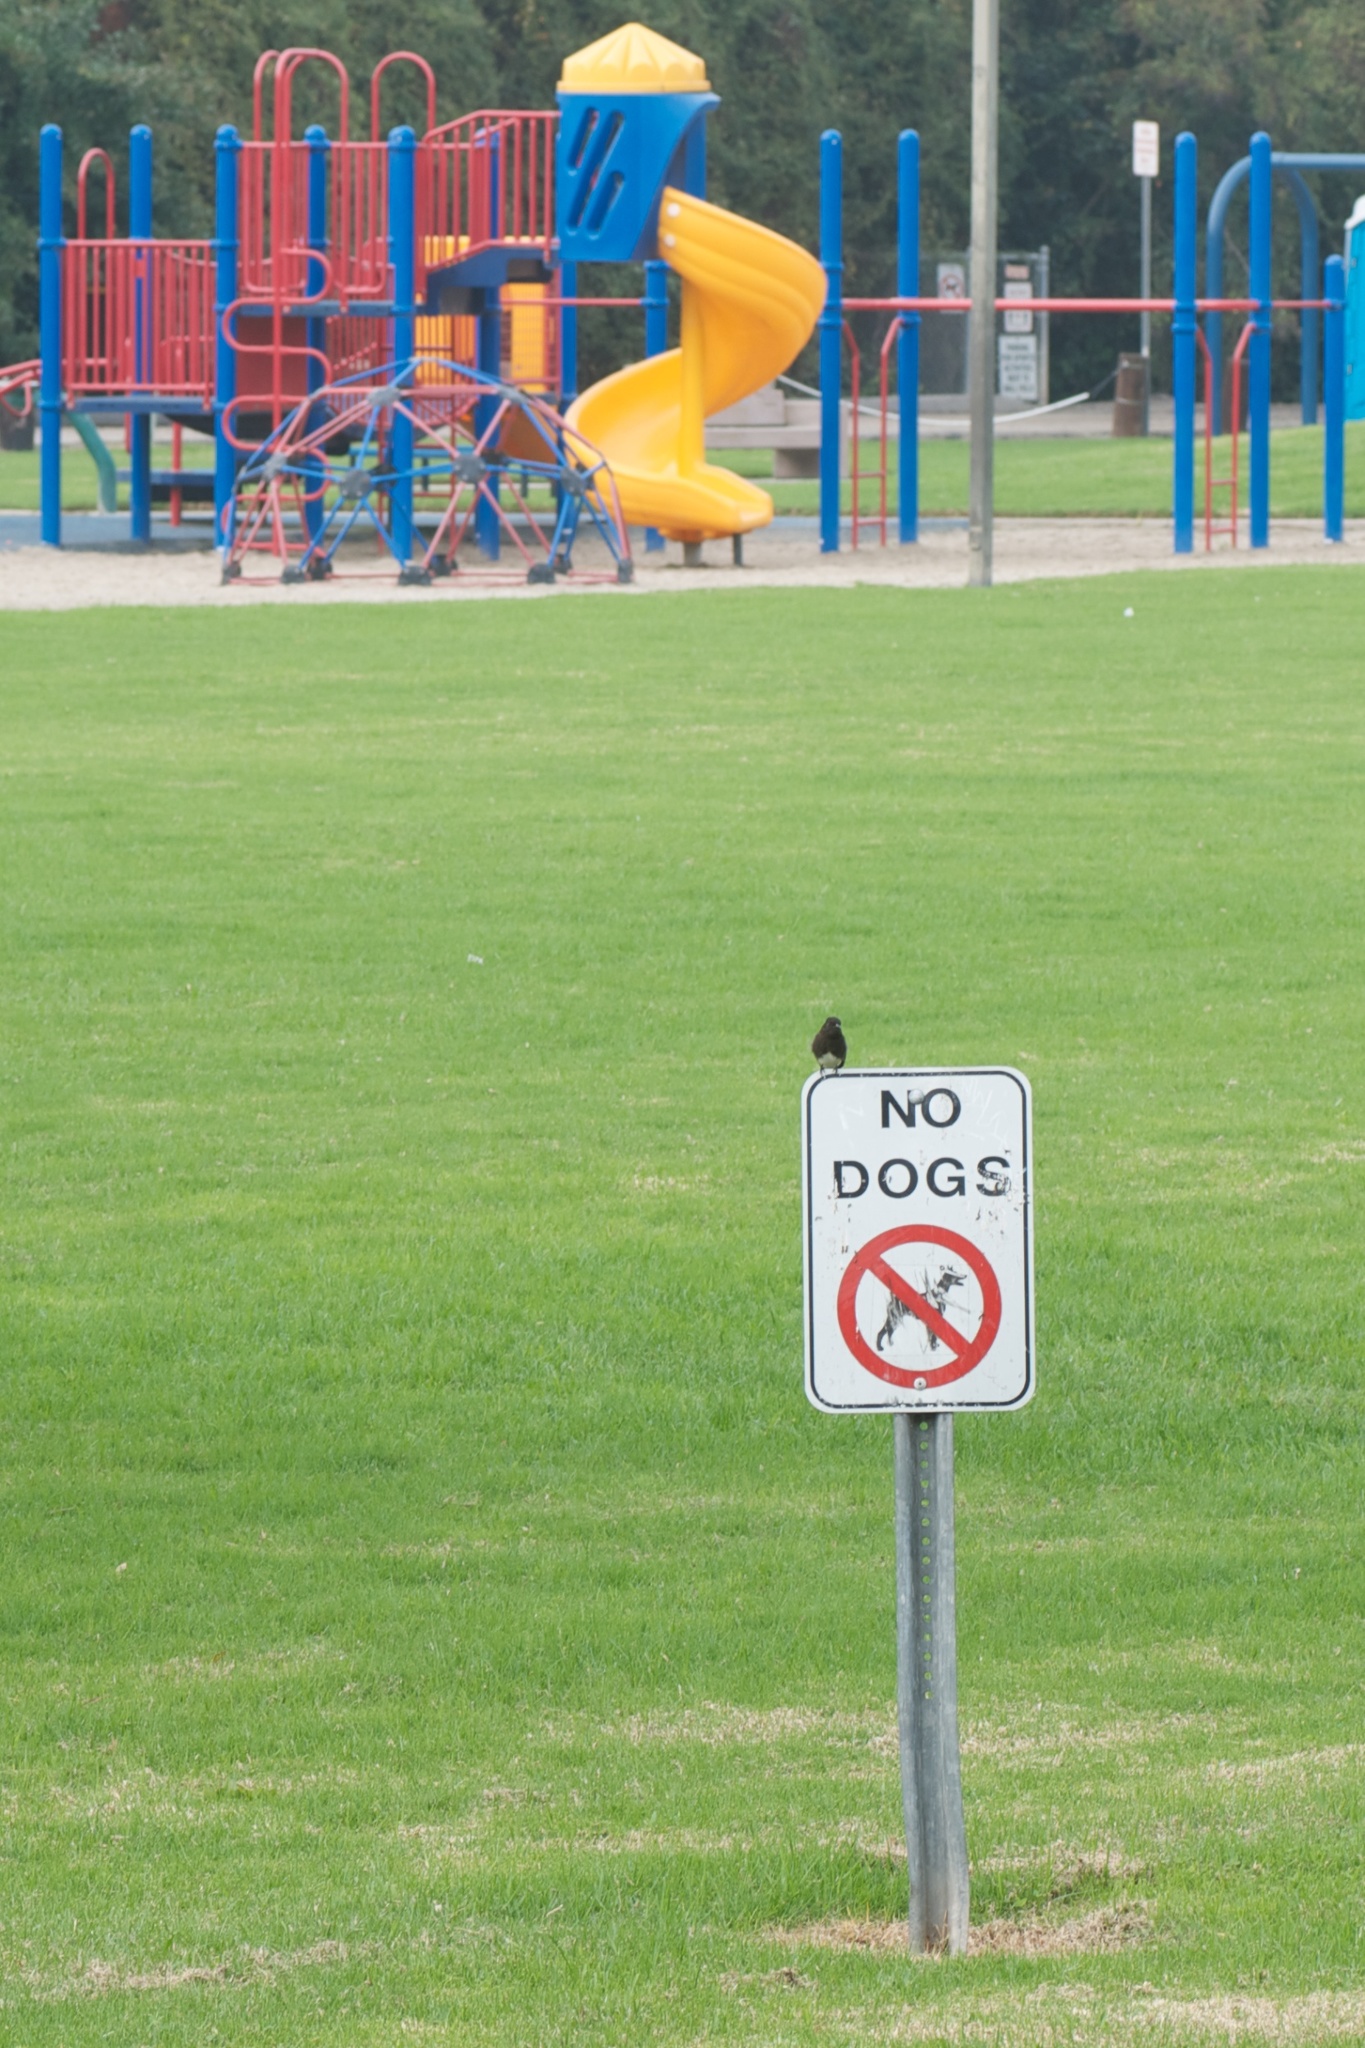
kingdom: Animalia
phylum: Chordata
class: Aves
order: Passeriformes
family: Tyrannidae
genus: Sayornis
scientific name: Sayornis nigricans
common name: Black phoebe
